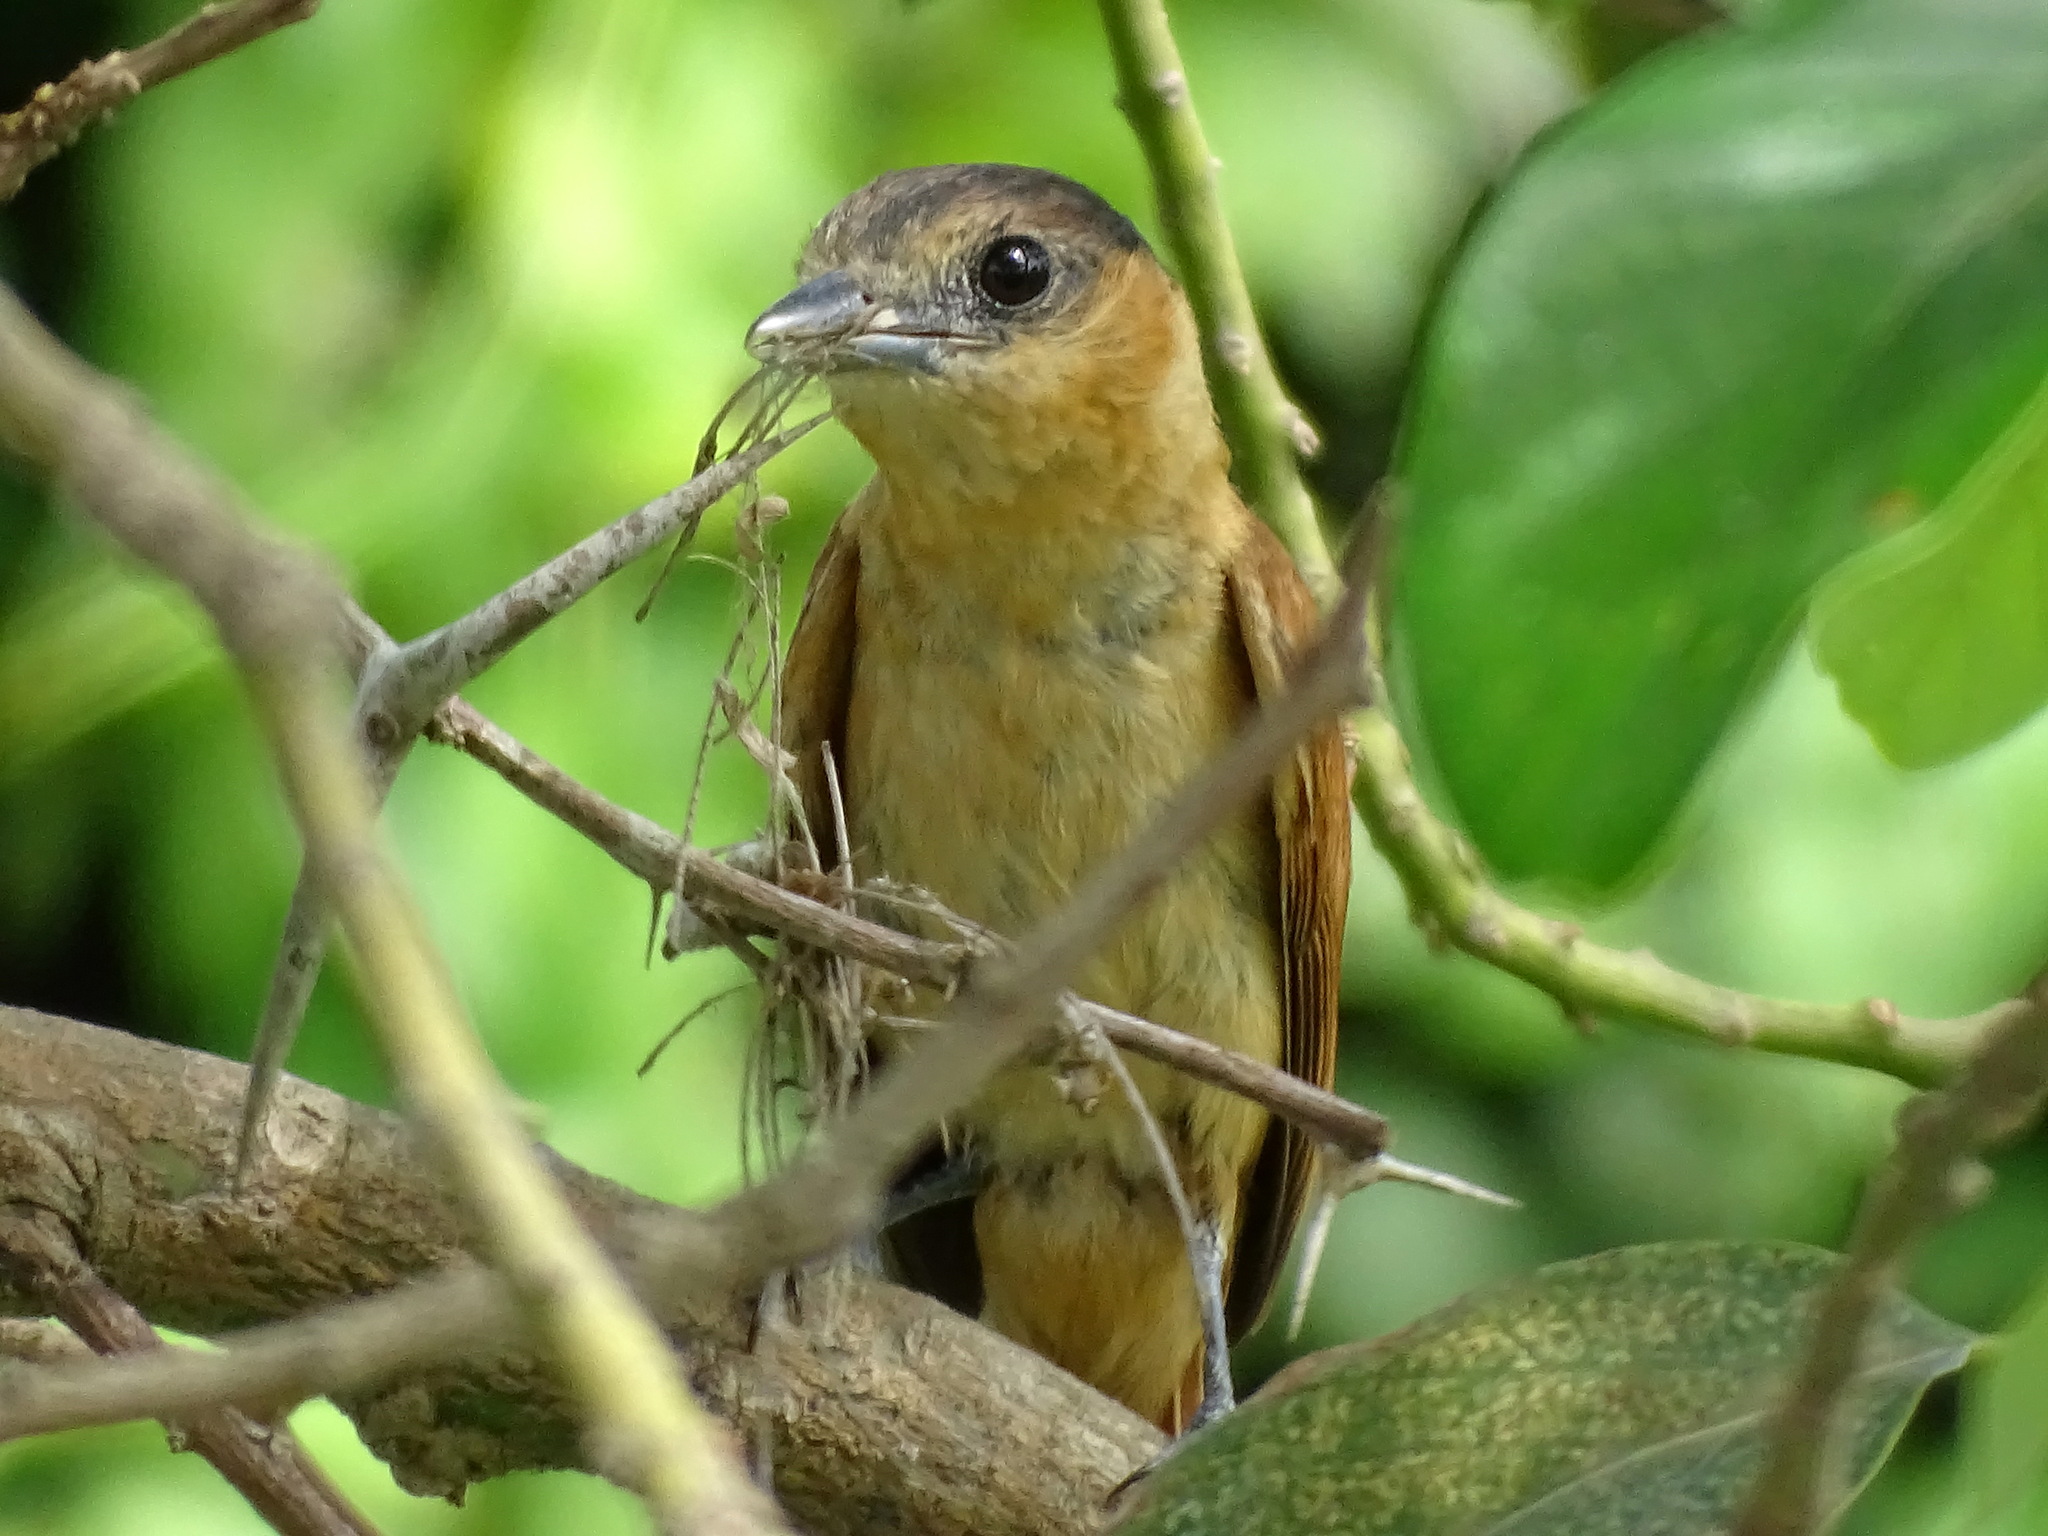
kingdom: Animalia
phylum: Chordata
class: Aves
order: Passeriformes
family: Cotingidae
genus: Pachyramphus
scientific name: Pachyramphus aglaiae
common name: Rose-throated becard
